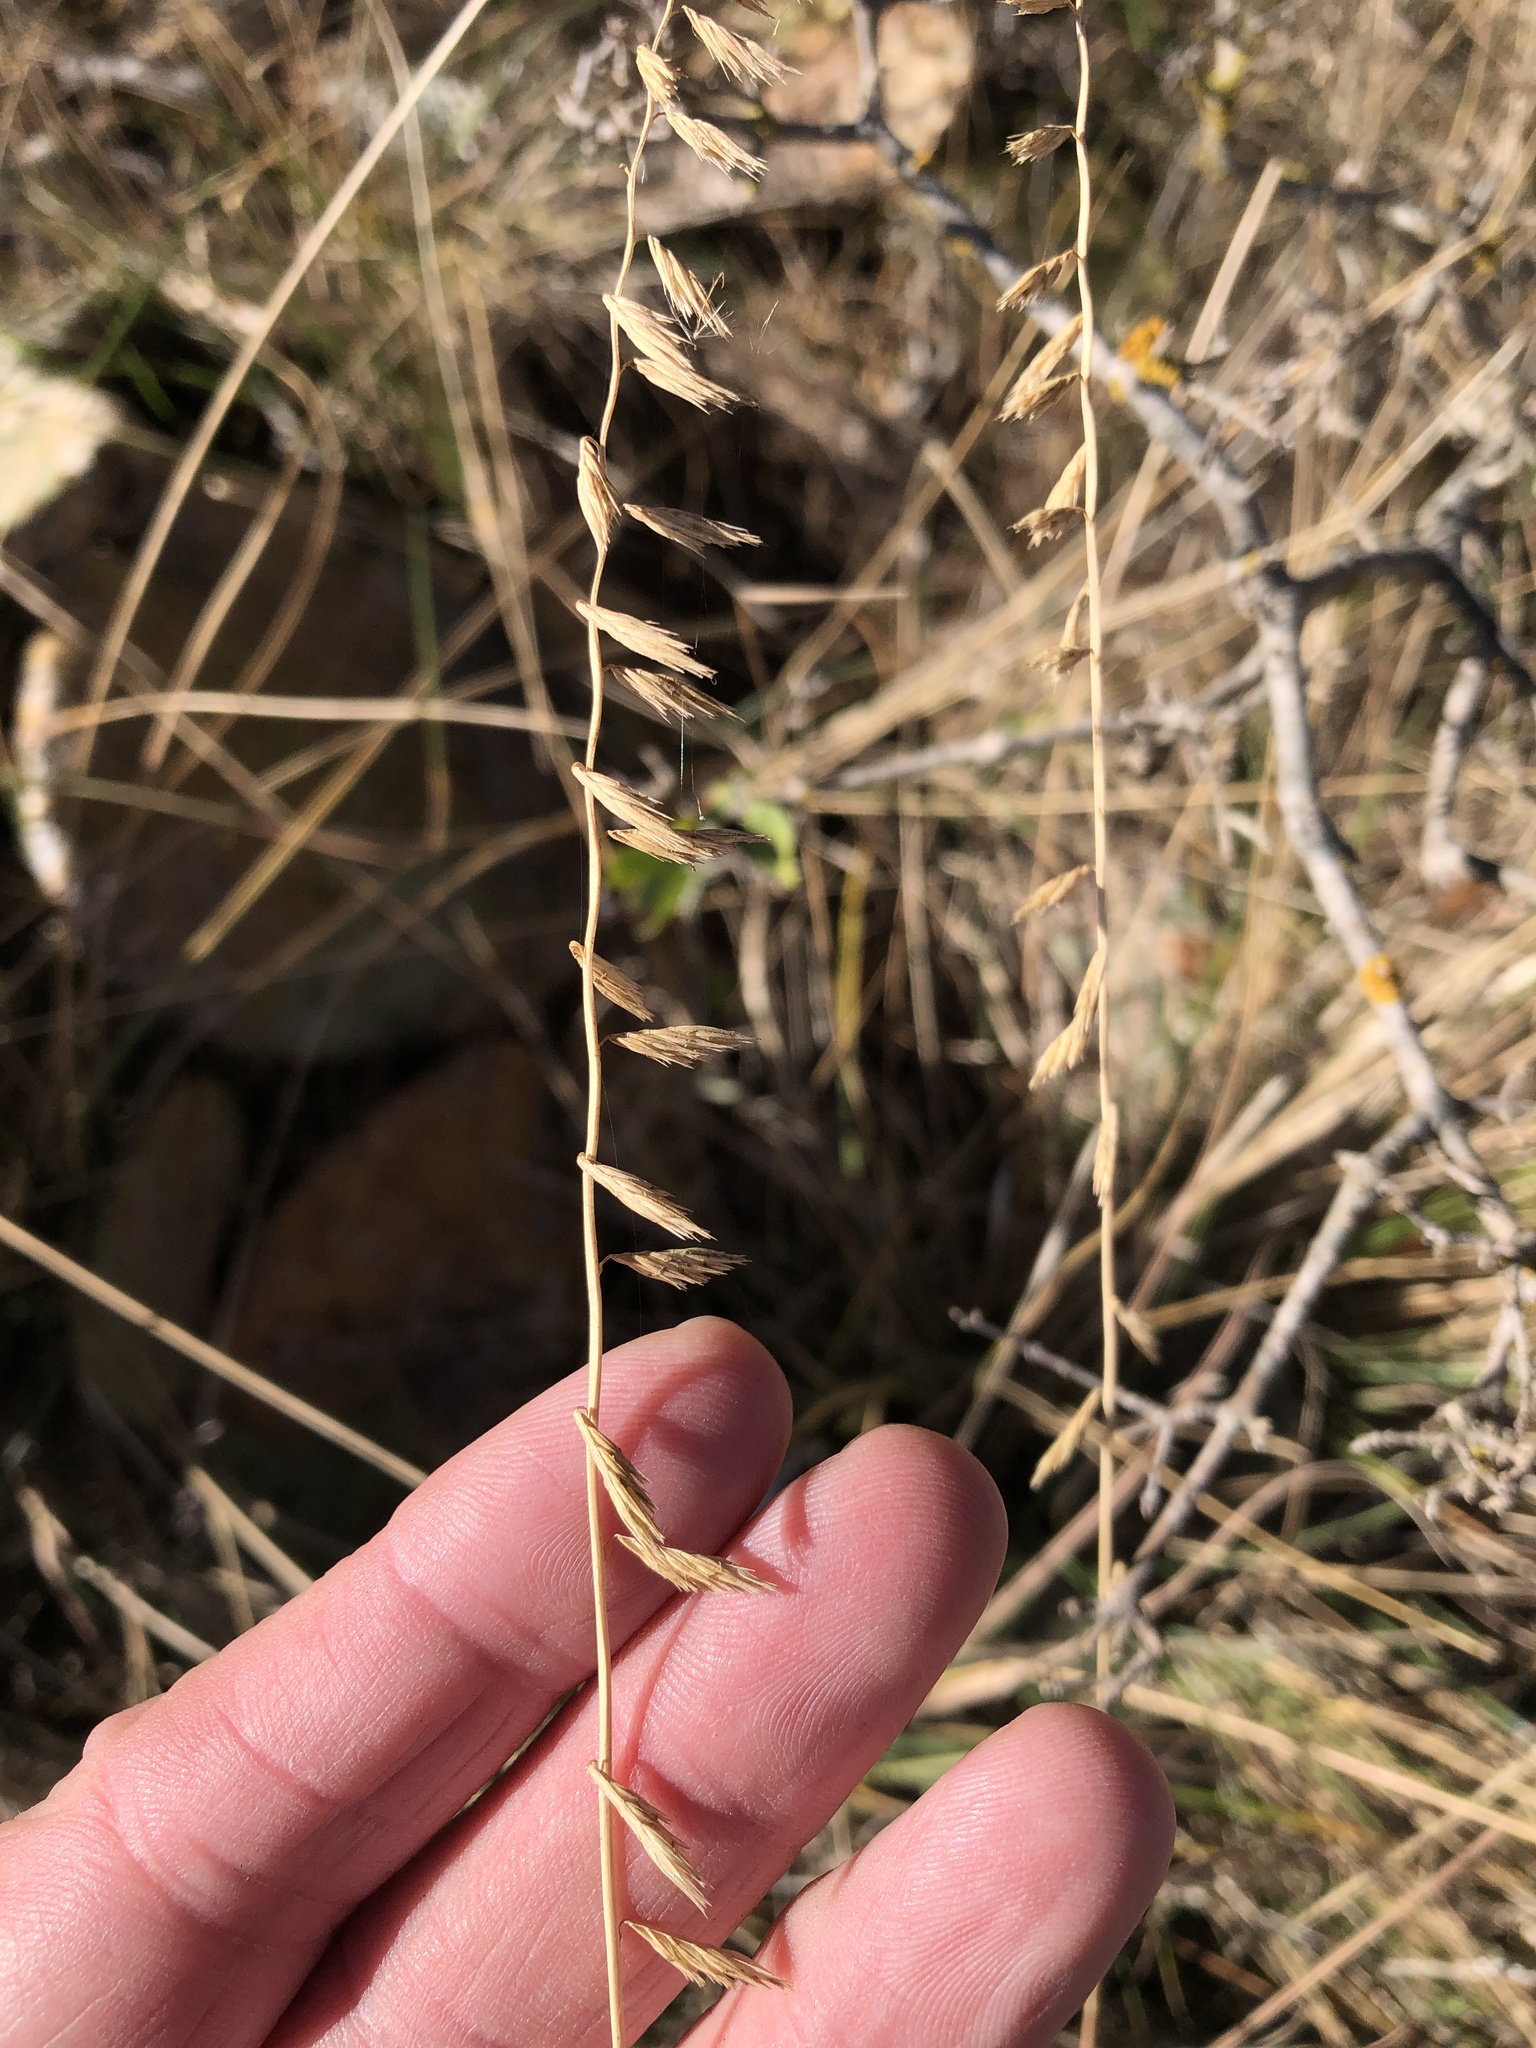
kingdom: Plantae
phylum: Tracheophyta
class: Liliopsida
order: Poales
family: Poaceae
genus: Bouteloua
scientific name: Bouteloua curtipendula
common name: Side-oats grama
